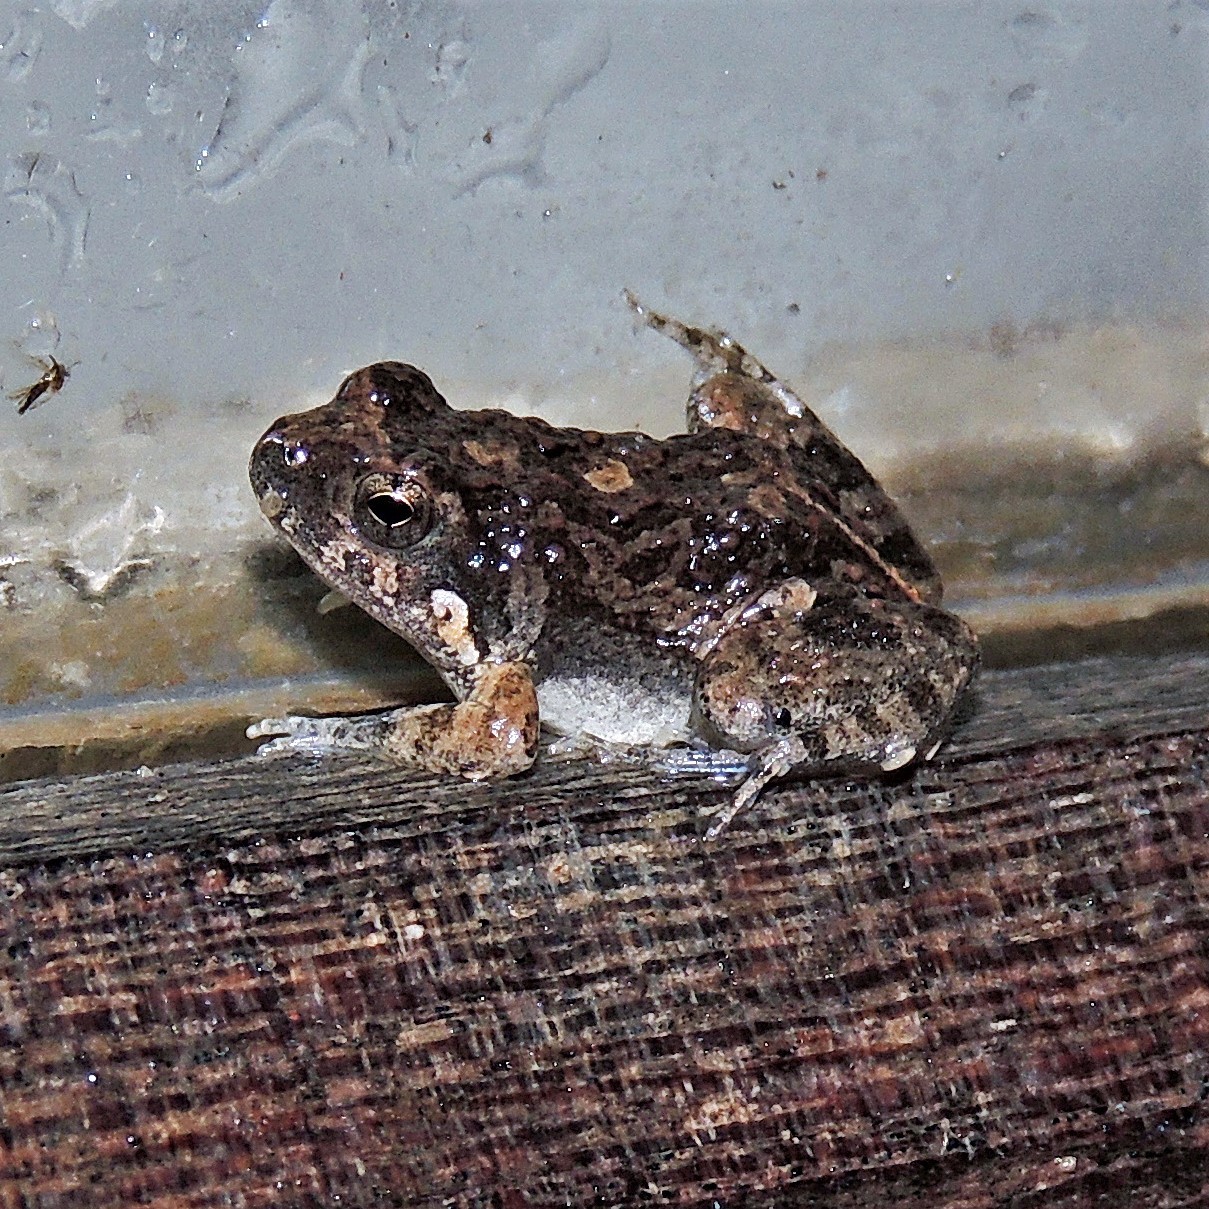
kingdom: Animalia
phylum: Chordata
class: Amphibia
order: Anura
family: Leptodactylidae
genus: Physalaemus
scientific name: Physalaemus biligonigerus
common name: Weeping frog
